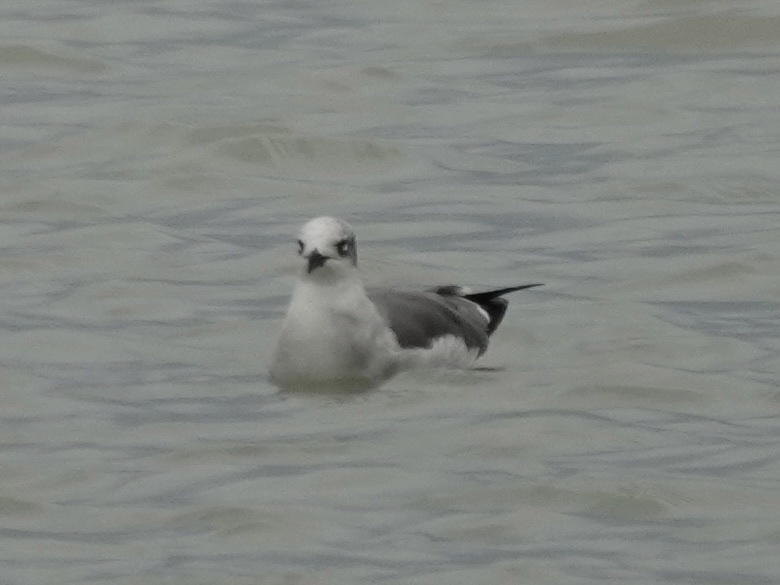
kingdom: Animalia
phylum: Chordata
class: Aves
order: Charadriiformes
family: Laridae
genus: Leucophaeus
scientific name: Leucophaeus atricilla
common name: Laughing gull
